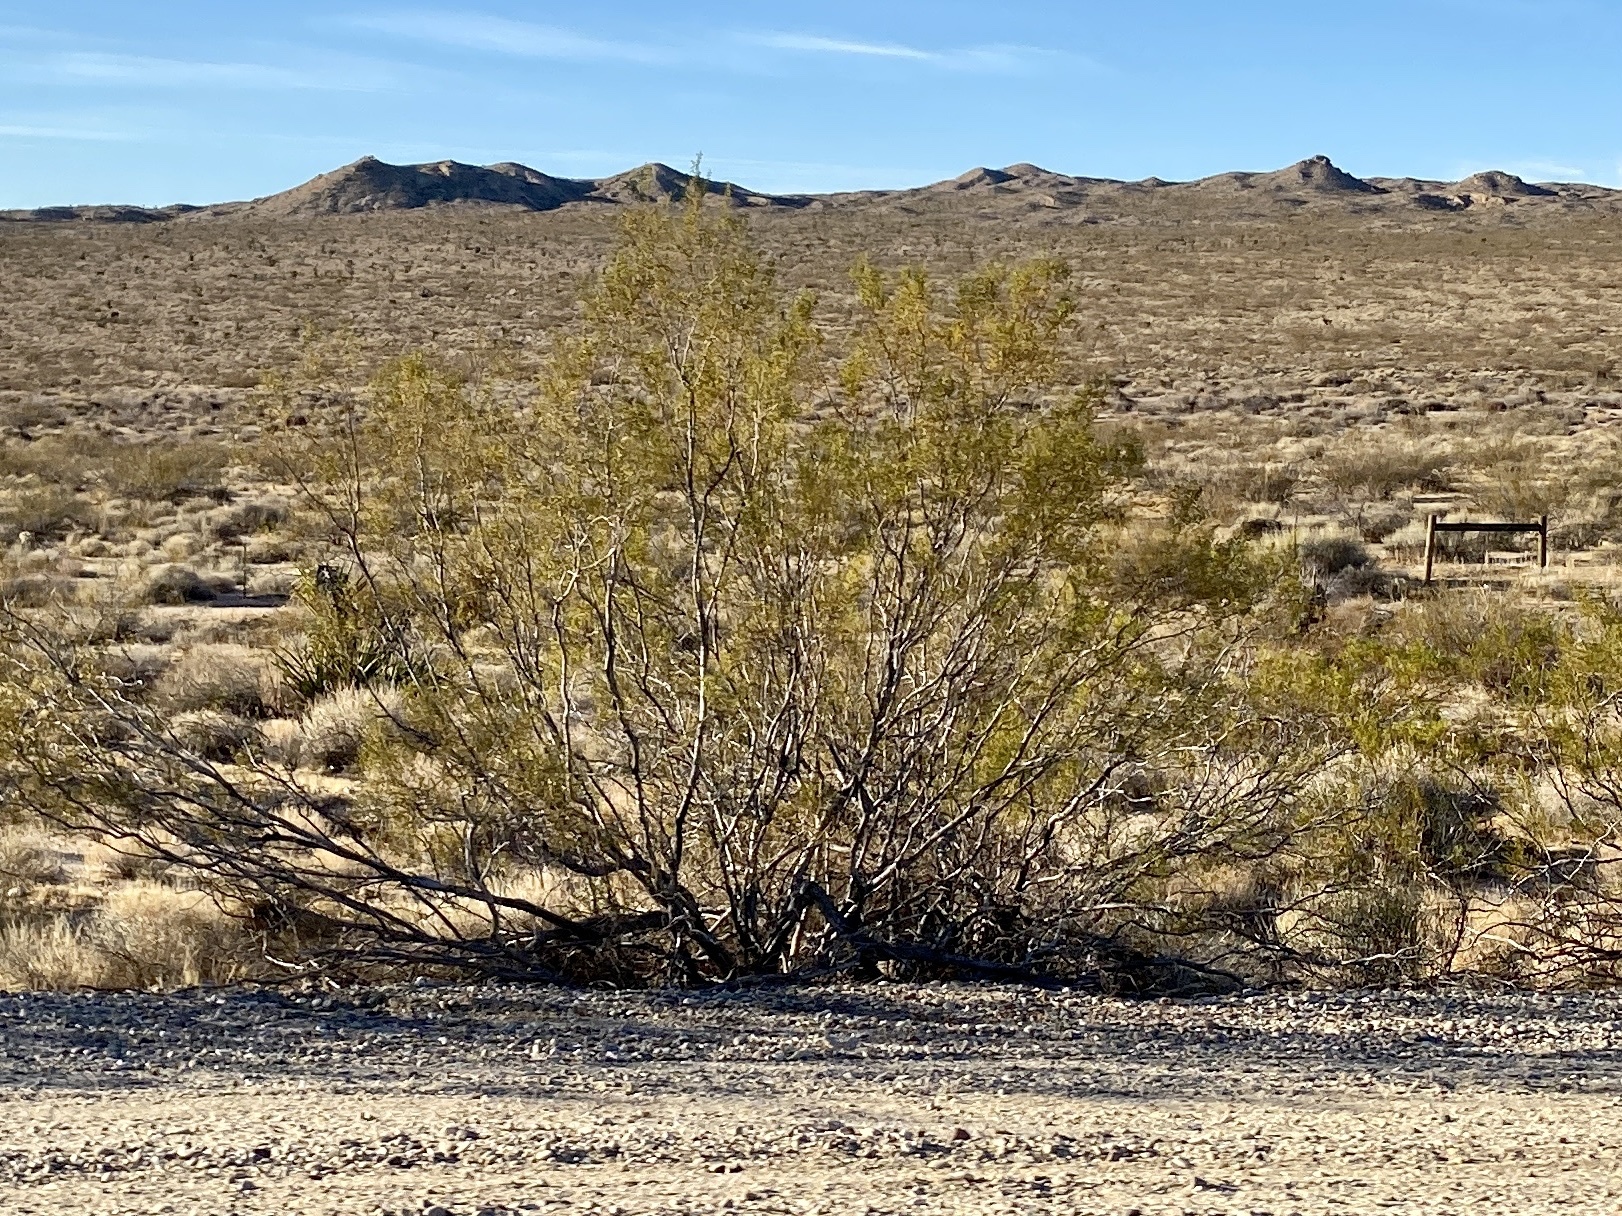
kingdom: Plantae
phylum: Tracheophyta
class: Magnoliopsida
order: Zygophyllales
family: Zygophyllaceae
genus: Larrea
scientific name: Larrea tridentata
